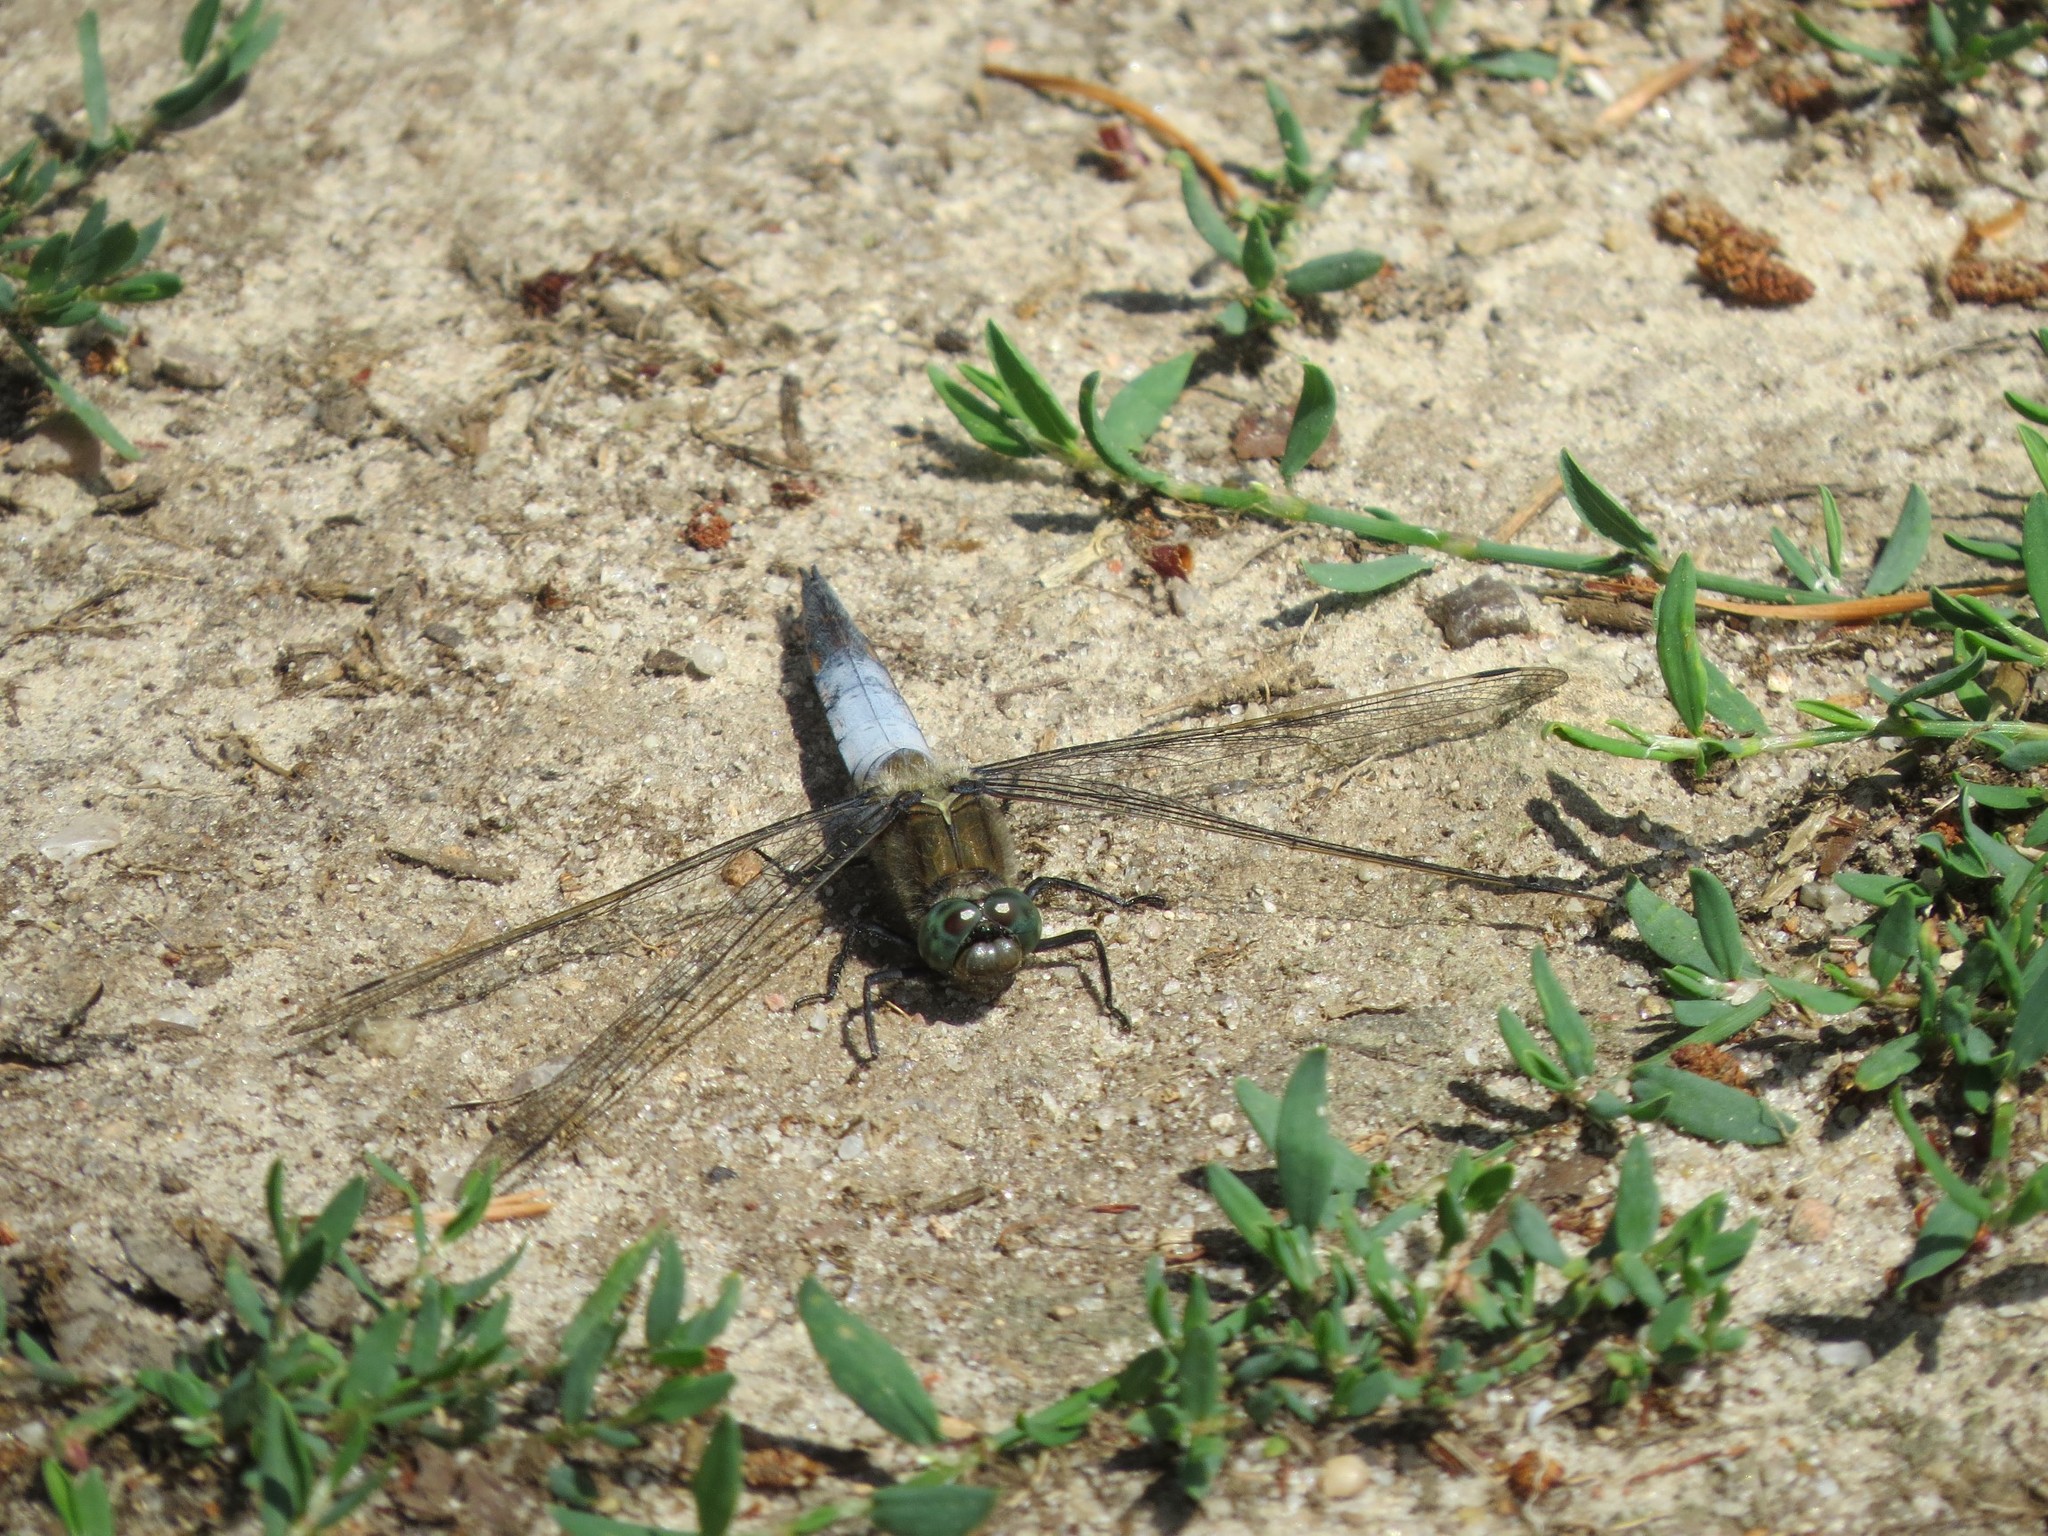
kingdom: Animalia
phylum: Arthropoda
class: Insecta
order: Odonata
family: Libellulidae
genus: Orthetrum
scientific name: Orthetrum cancellatum
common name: Black-tailed skimmer
